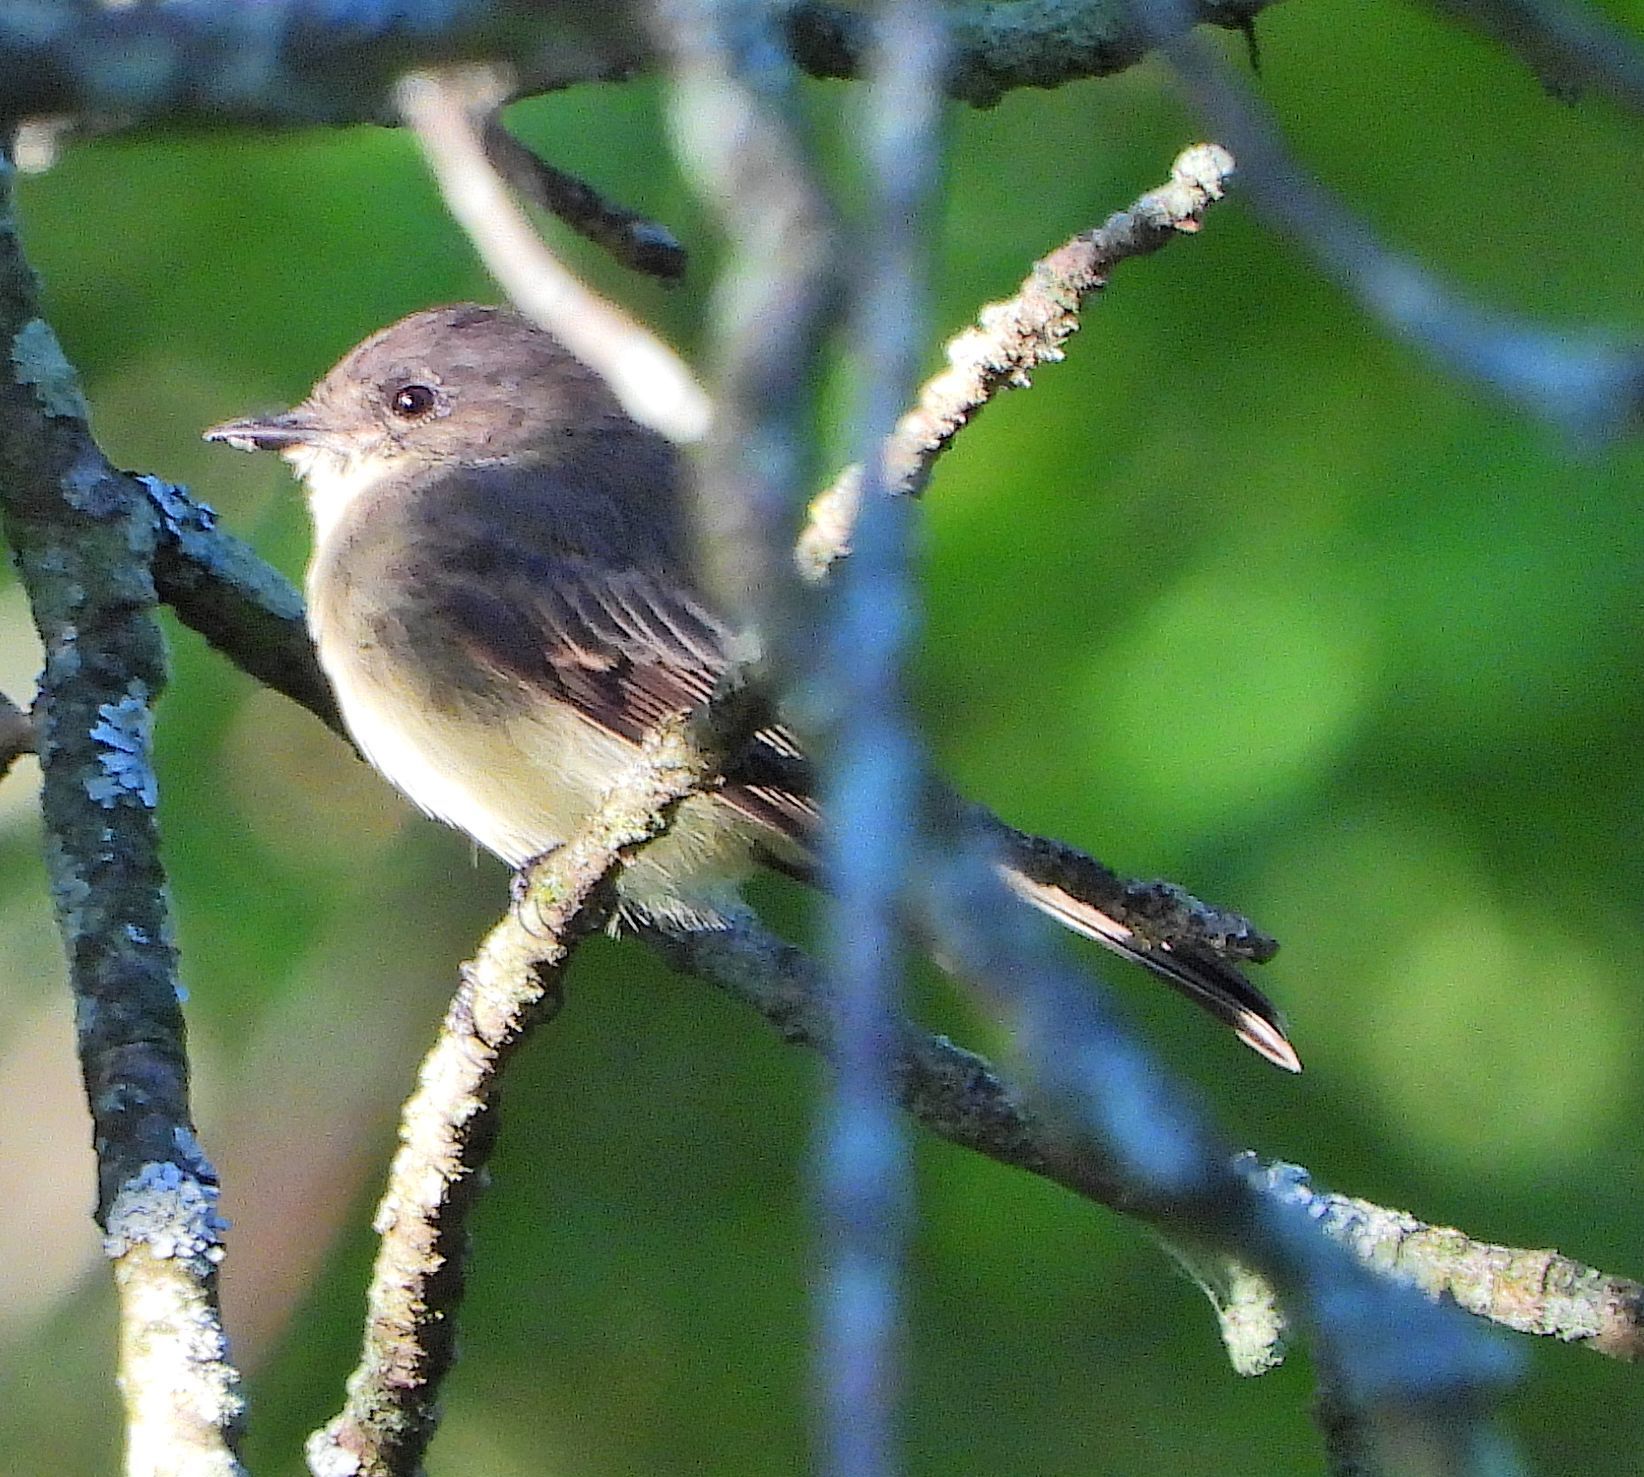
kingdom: Animalia
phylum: Chordata
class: Aves
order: Passeriformes
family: Tyrannidae
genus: Sayornis
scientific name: Sayornis phoebe
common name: Eastern phoebe
